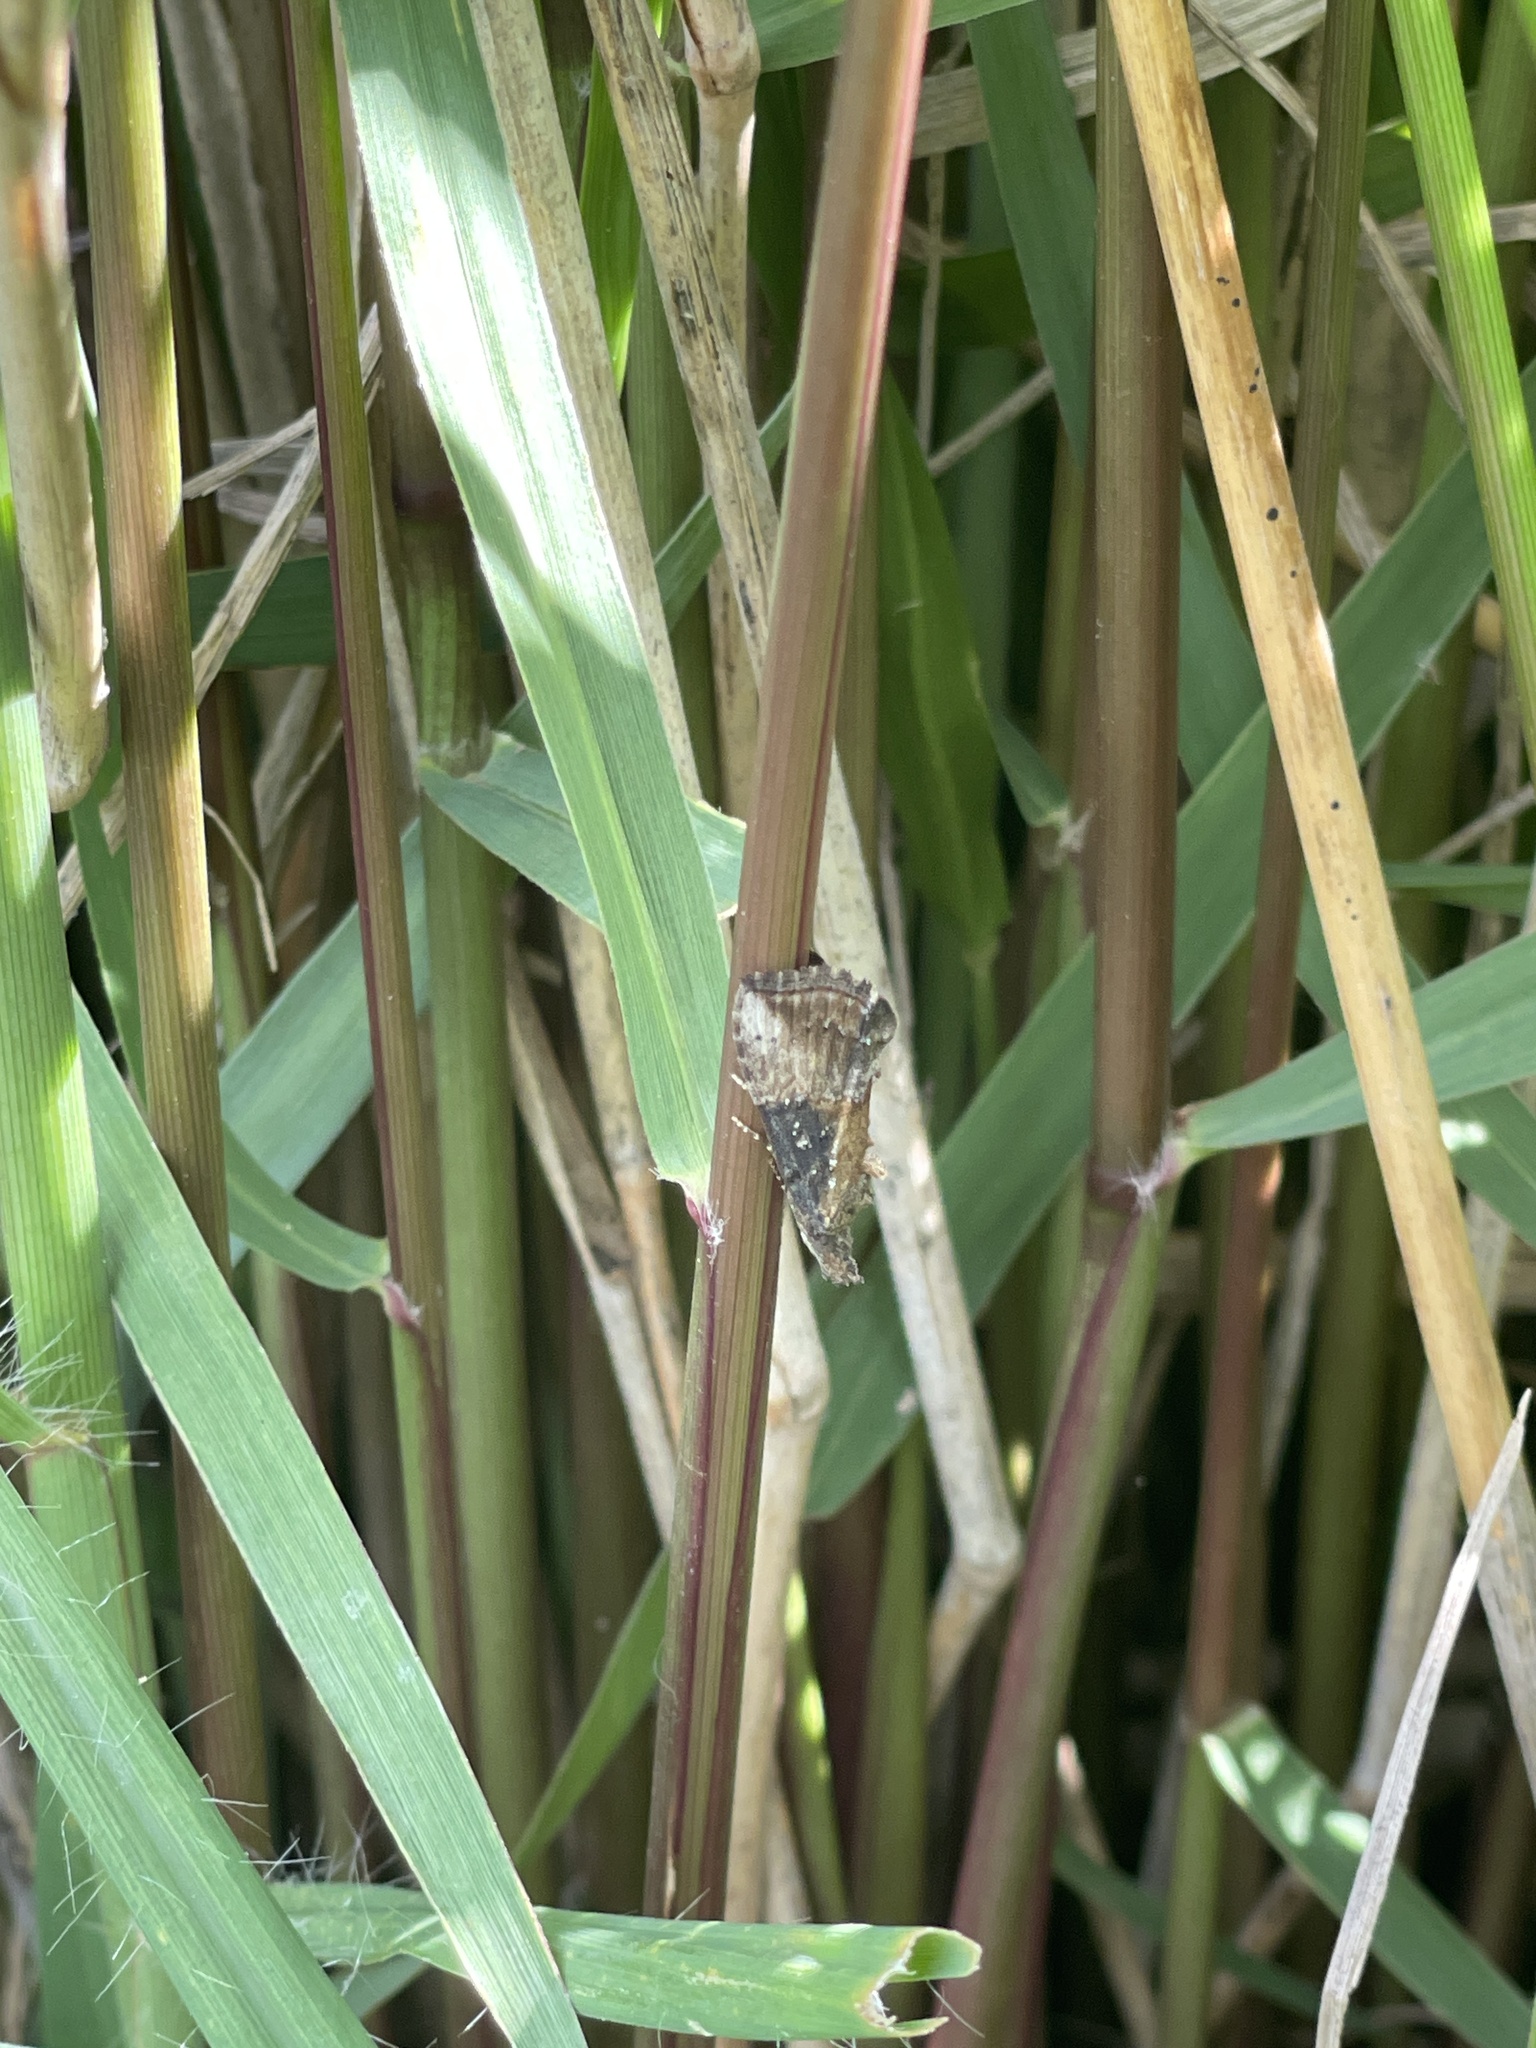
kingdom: Animalia
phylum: Arthropoda
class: Insecta
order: Lepidoptera
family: Erebidae
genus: Hypena
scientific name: Hypena scabra
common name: Green cloverworm
